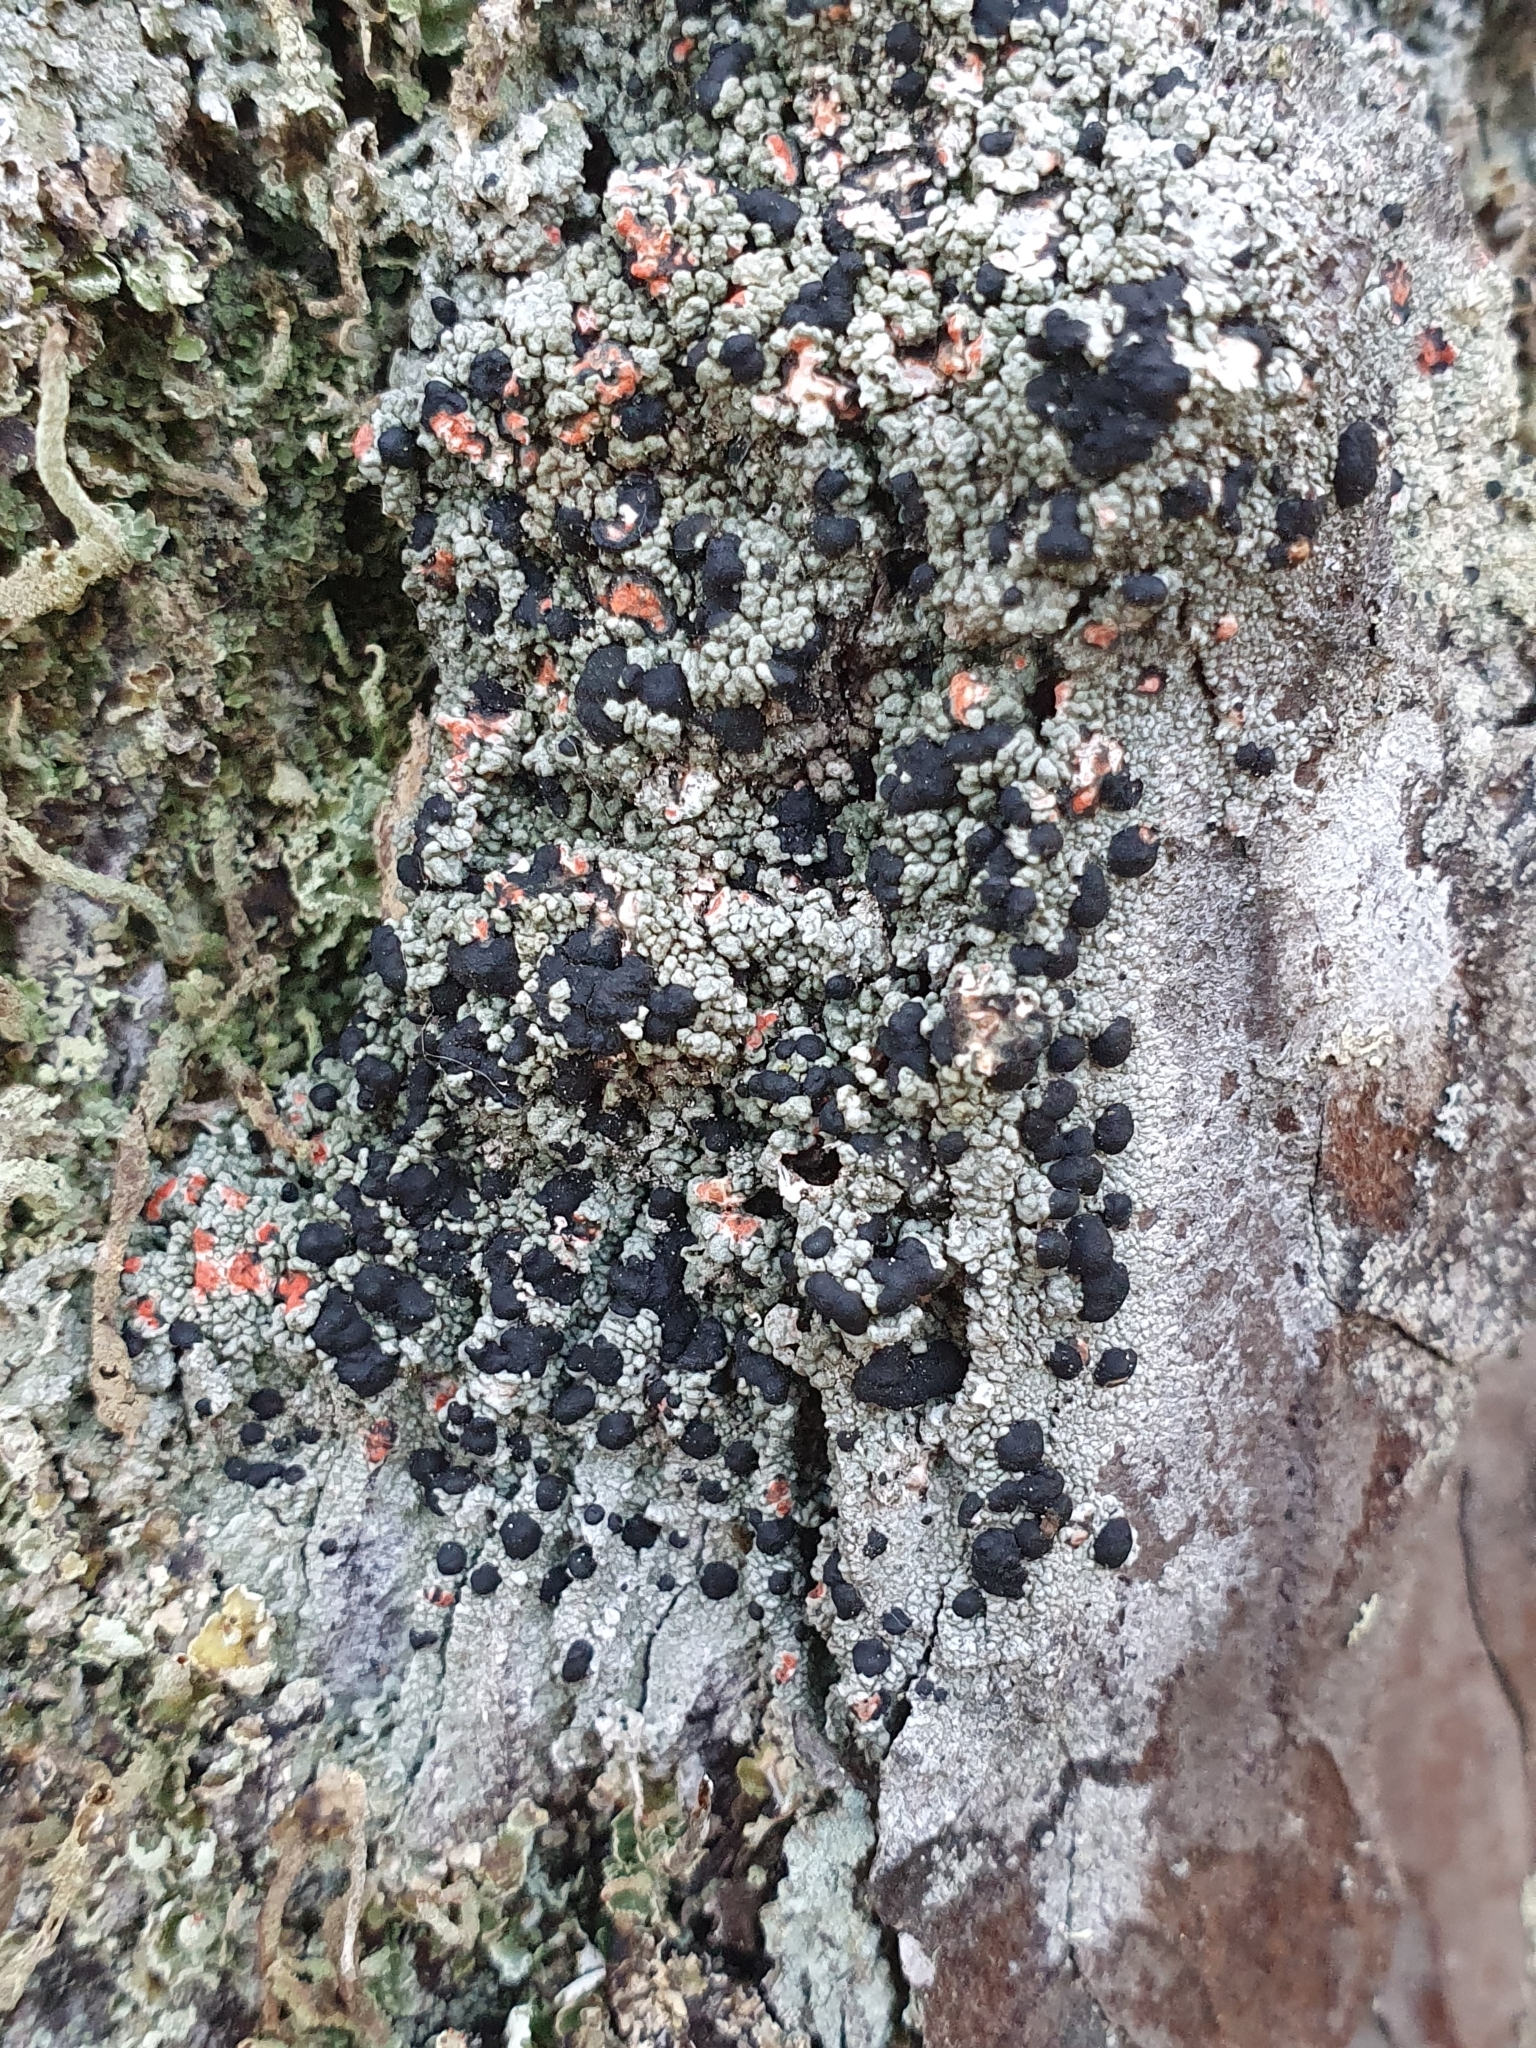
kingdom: Fungi
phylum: Ascomycota
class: Lecanoromycetes
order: Lecanorales
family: Tephromelataceae
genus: Mycoblastus
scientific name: Mycoblastus sanguinarius
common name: Bloody-heart lichen
